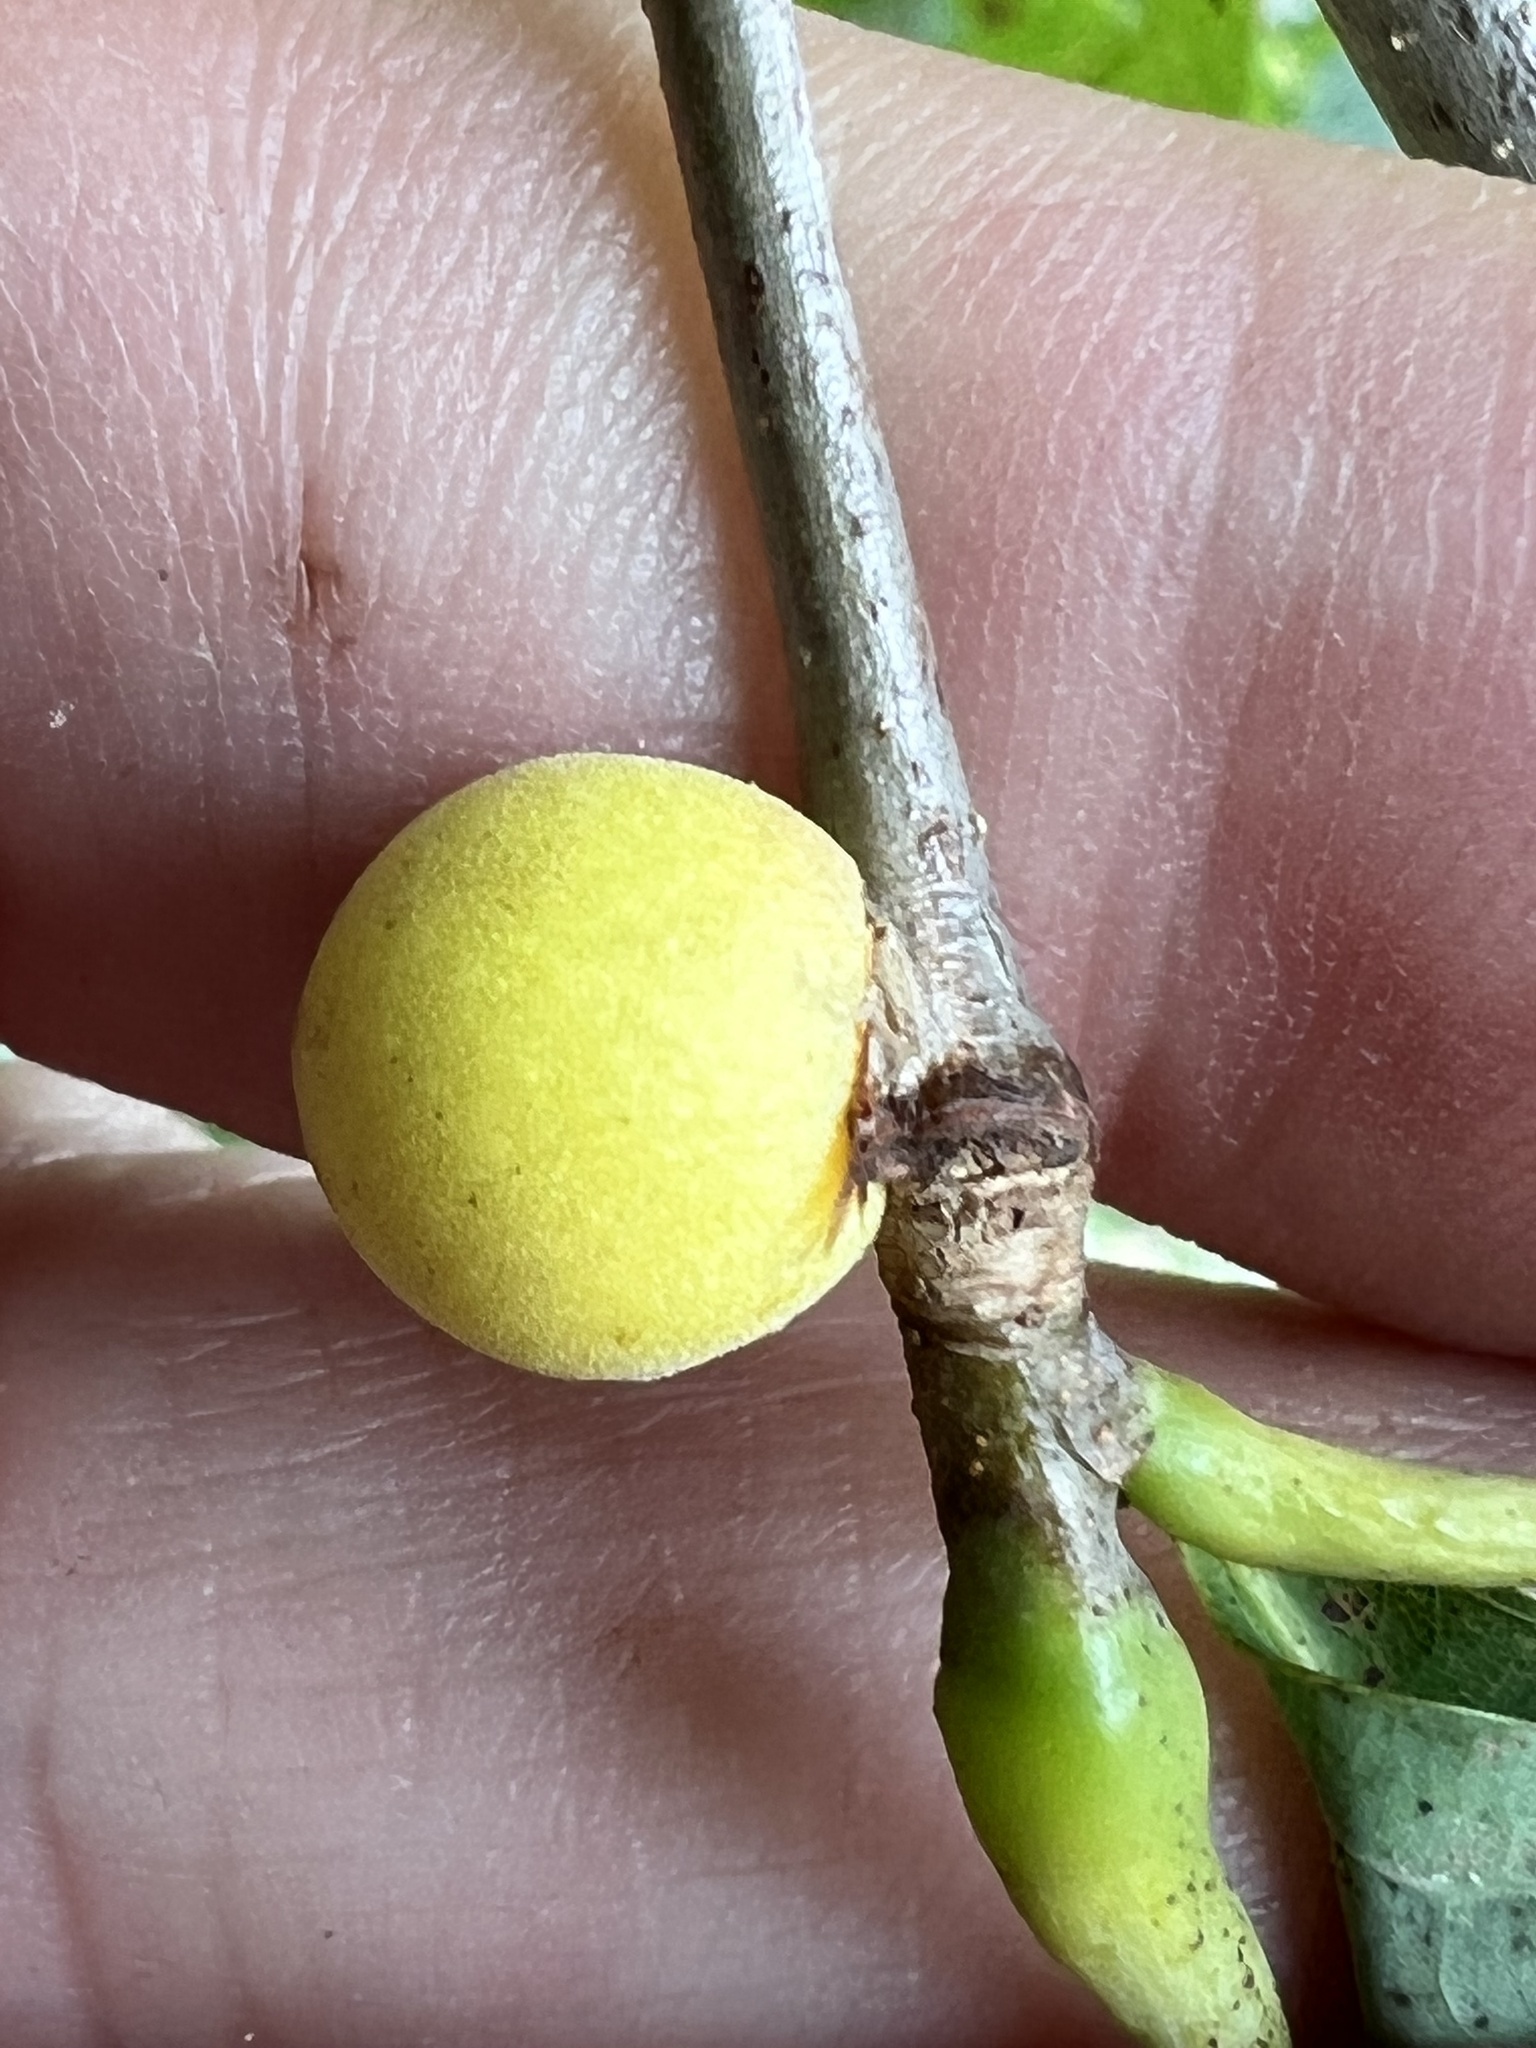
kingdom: Animalia
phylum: Arthropoda
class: Insecta
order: Hymenoptera
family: Cynipidae
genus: Disholcaspis
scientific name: Disholcaspis quercusglobulus
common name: Round bullet gall wasp
